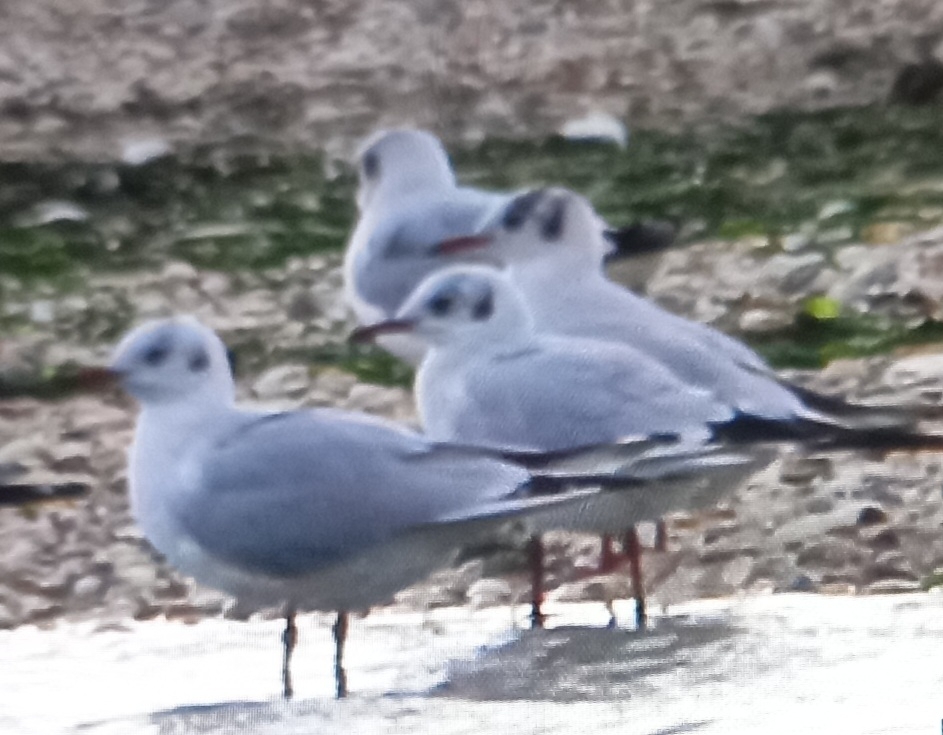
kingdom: Animalia
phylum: Chordata
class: Aves
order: Charadriiformes
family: Laridae
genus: Chroicocephalus
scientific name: Chroicocephalus ridibundus
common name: Black-headed gull
